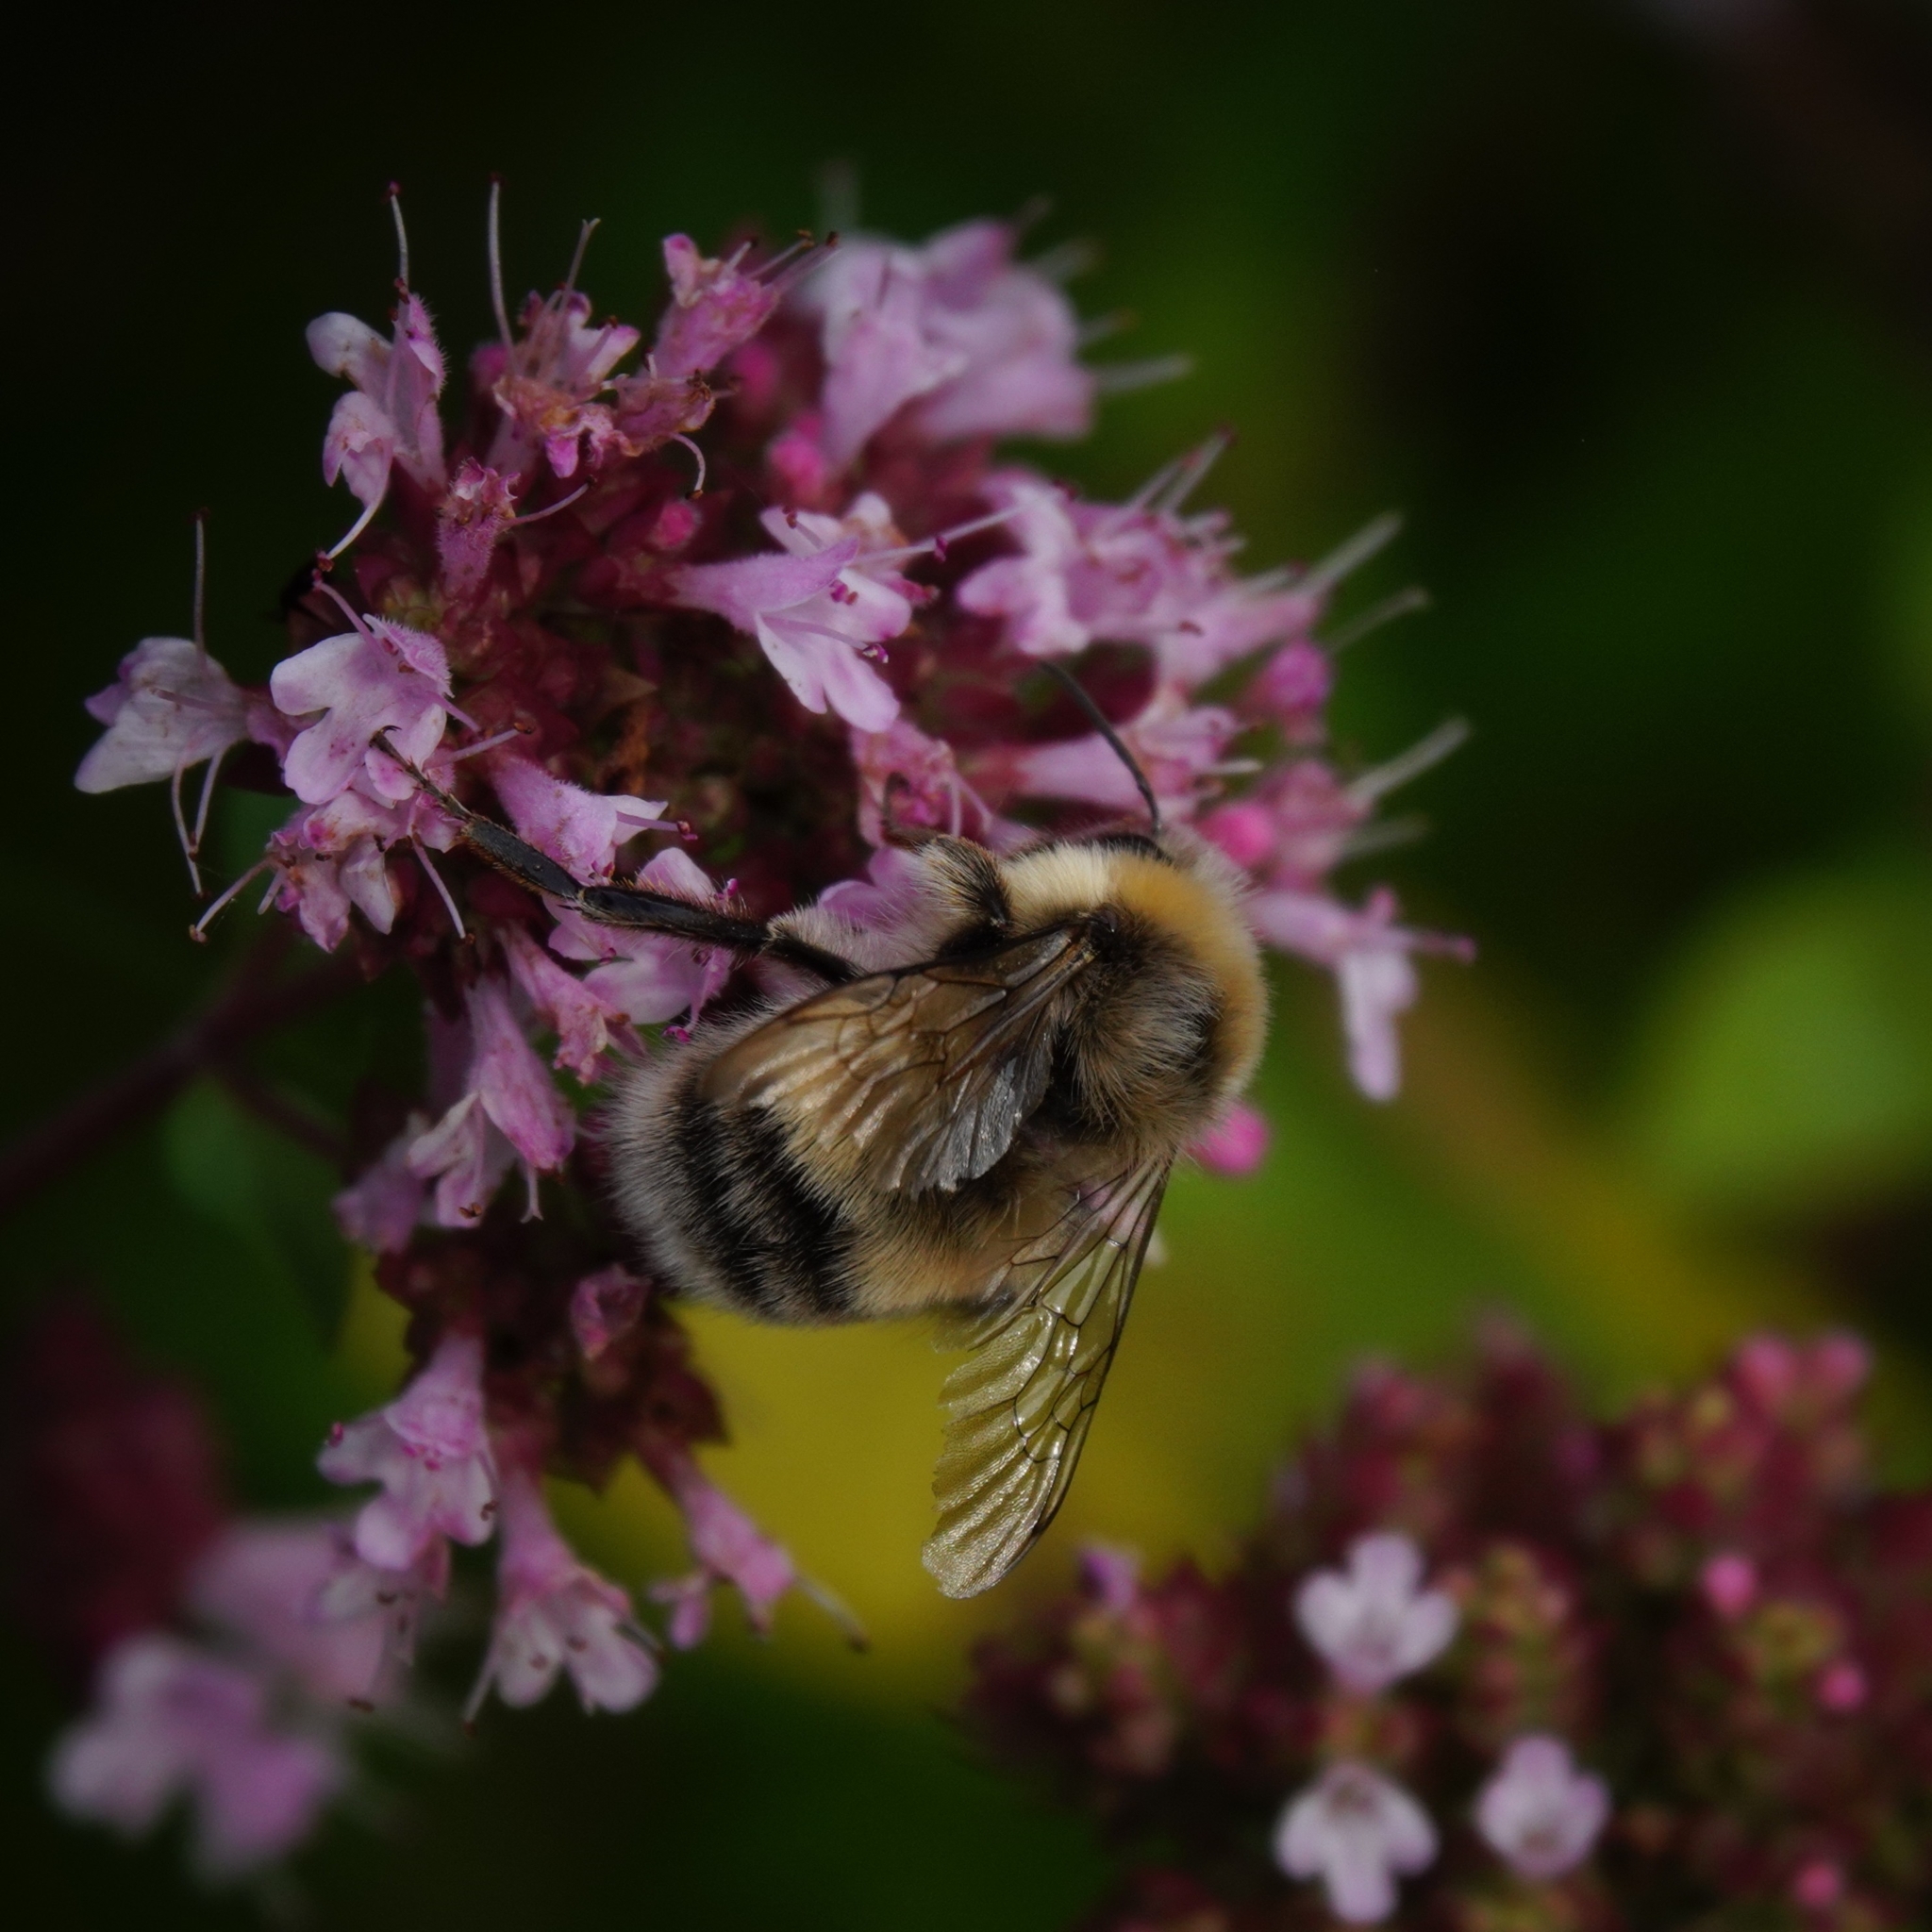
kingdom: Animalia
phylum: Arthropoda
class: Insecta
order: Hymenoptera
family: Apidae
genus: Bombus
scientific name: Bombus lucorum
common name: White-tailed bumblebee
